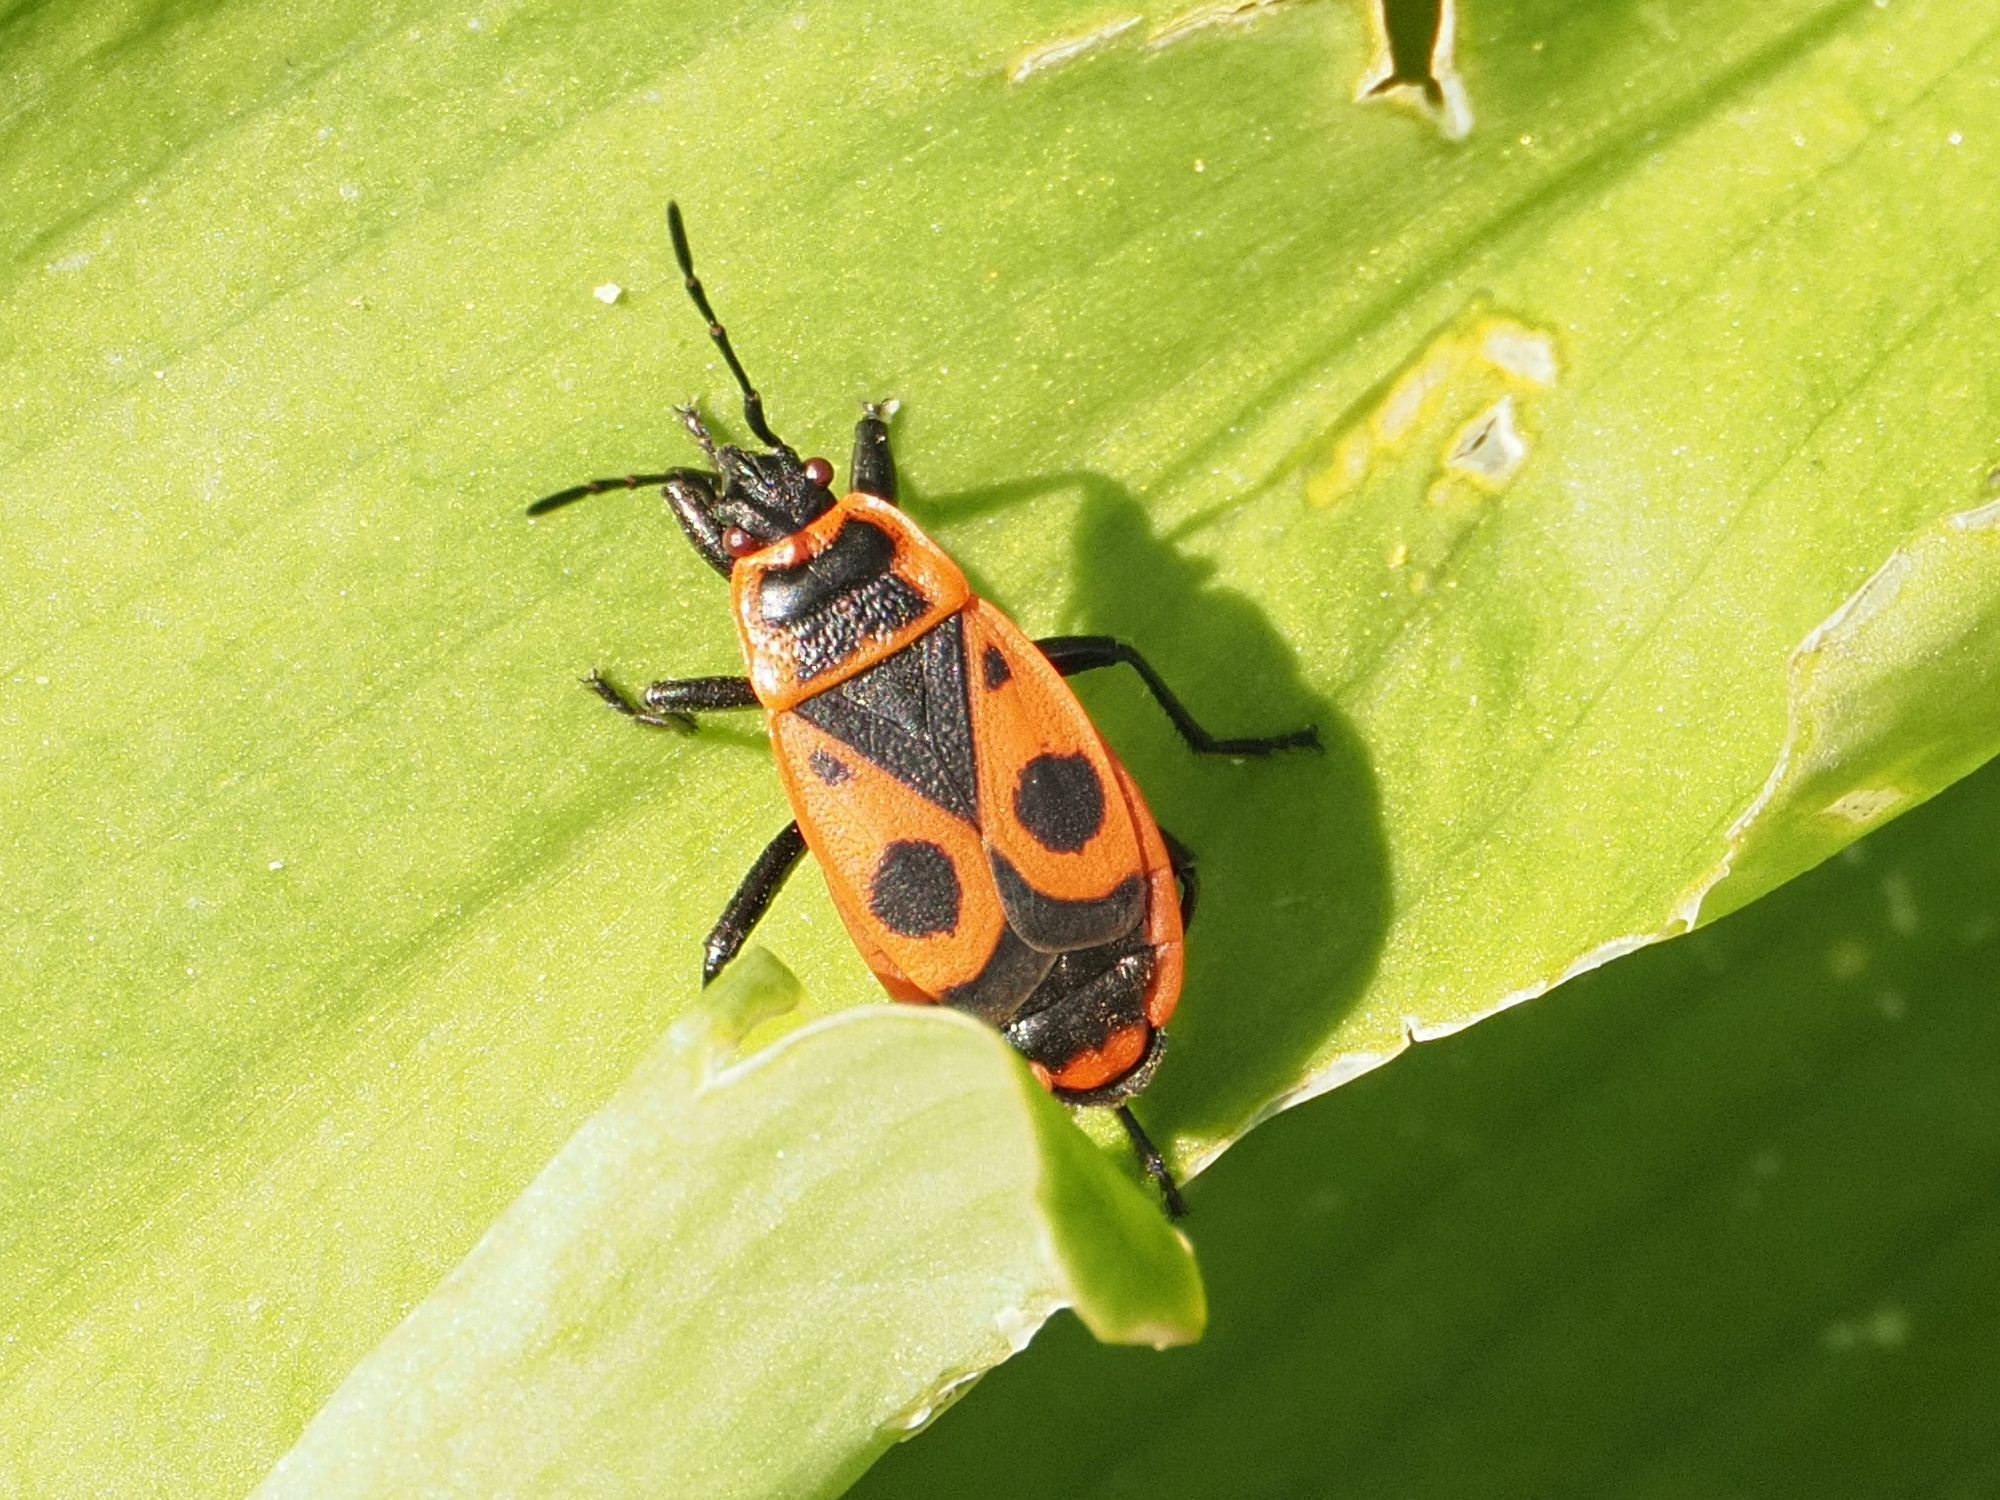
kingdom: Animalia
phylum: Arthropoda
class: Insecta
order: Hemiptera
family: Pyrrhocoridae
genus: Pyrrhocoris
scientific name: Pyrrhocoris apterus
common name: Firebug
